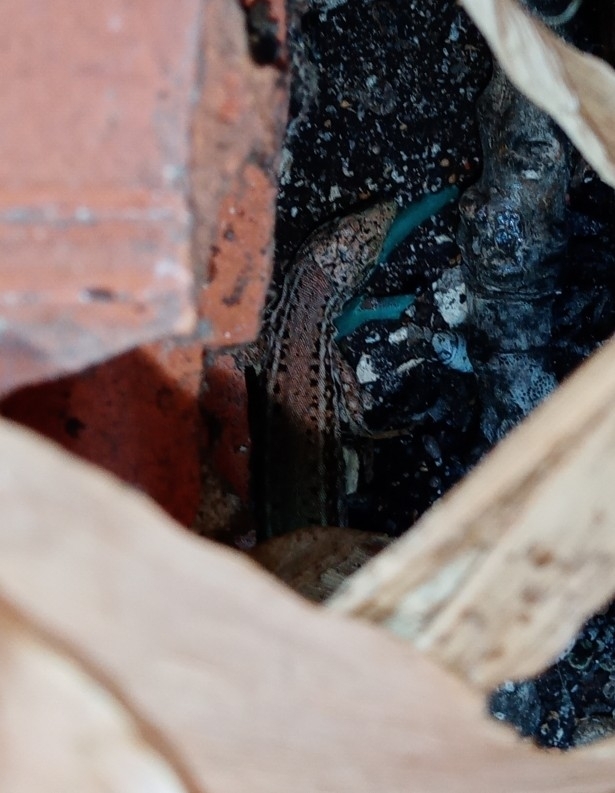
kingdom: Animalia
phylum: Chordata
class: Squamata
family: Lacertidae
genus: Podarcis
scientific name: Podarcis virescens
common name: Geniez’s wall lizard
